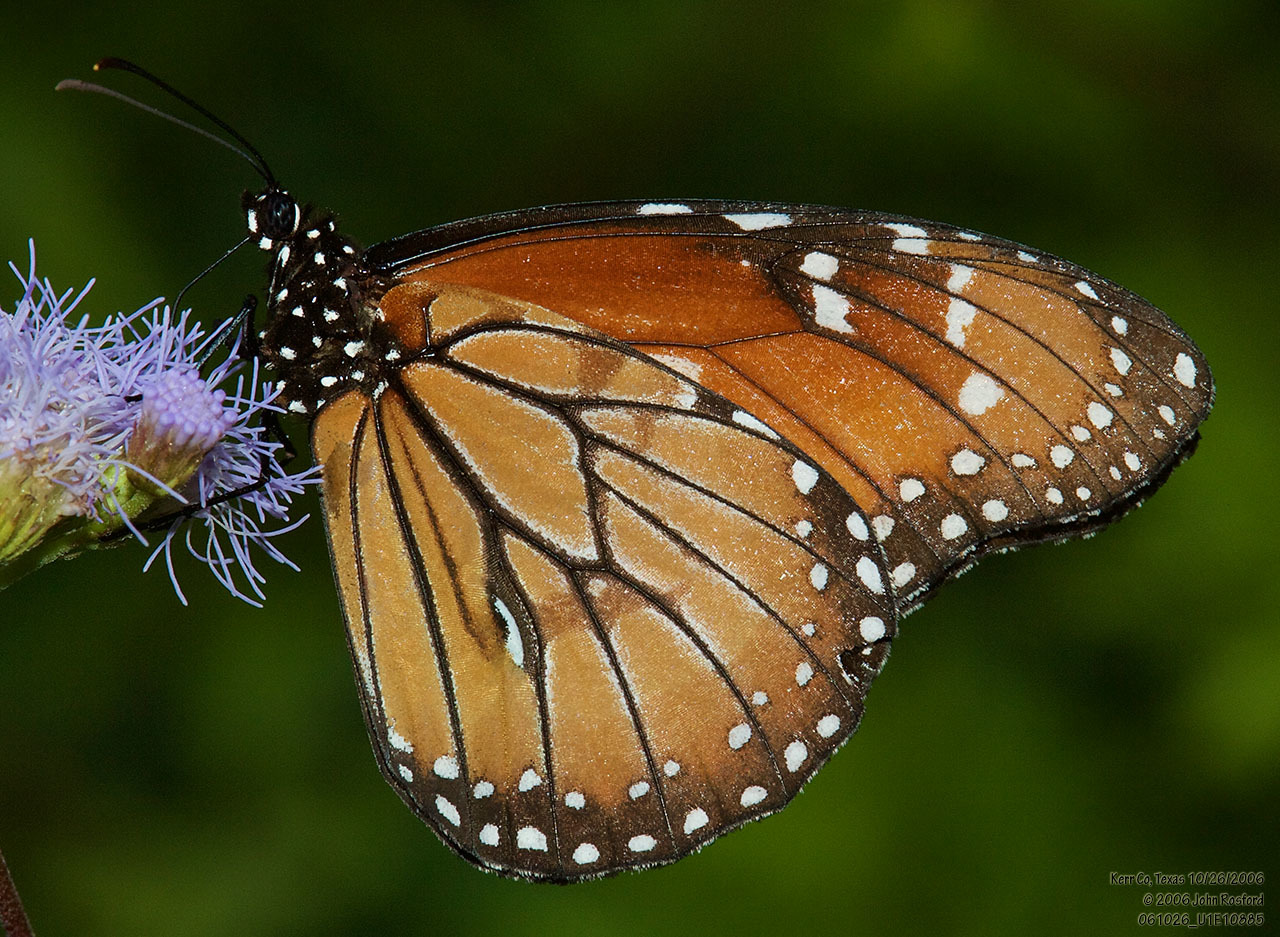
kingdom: Animalia
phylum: Arthropoda
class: Insecta
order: Lepidoptera
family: Nymphalidae
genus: Danaus
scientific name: Danaus eresimus
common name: Soldier
